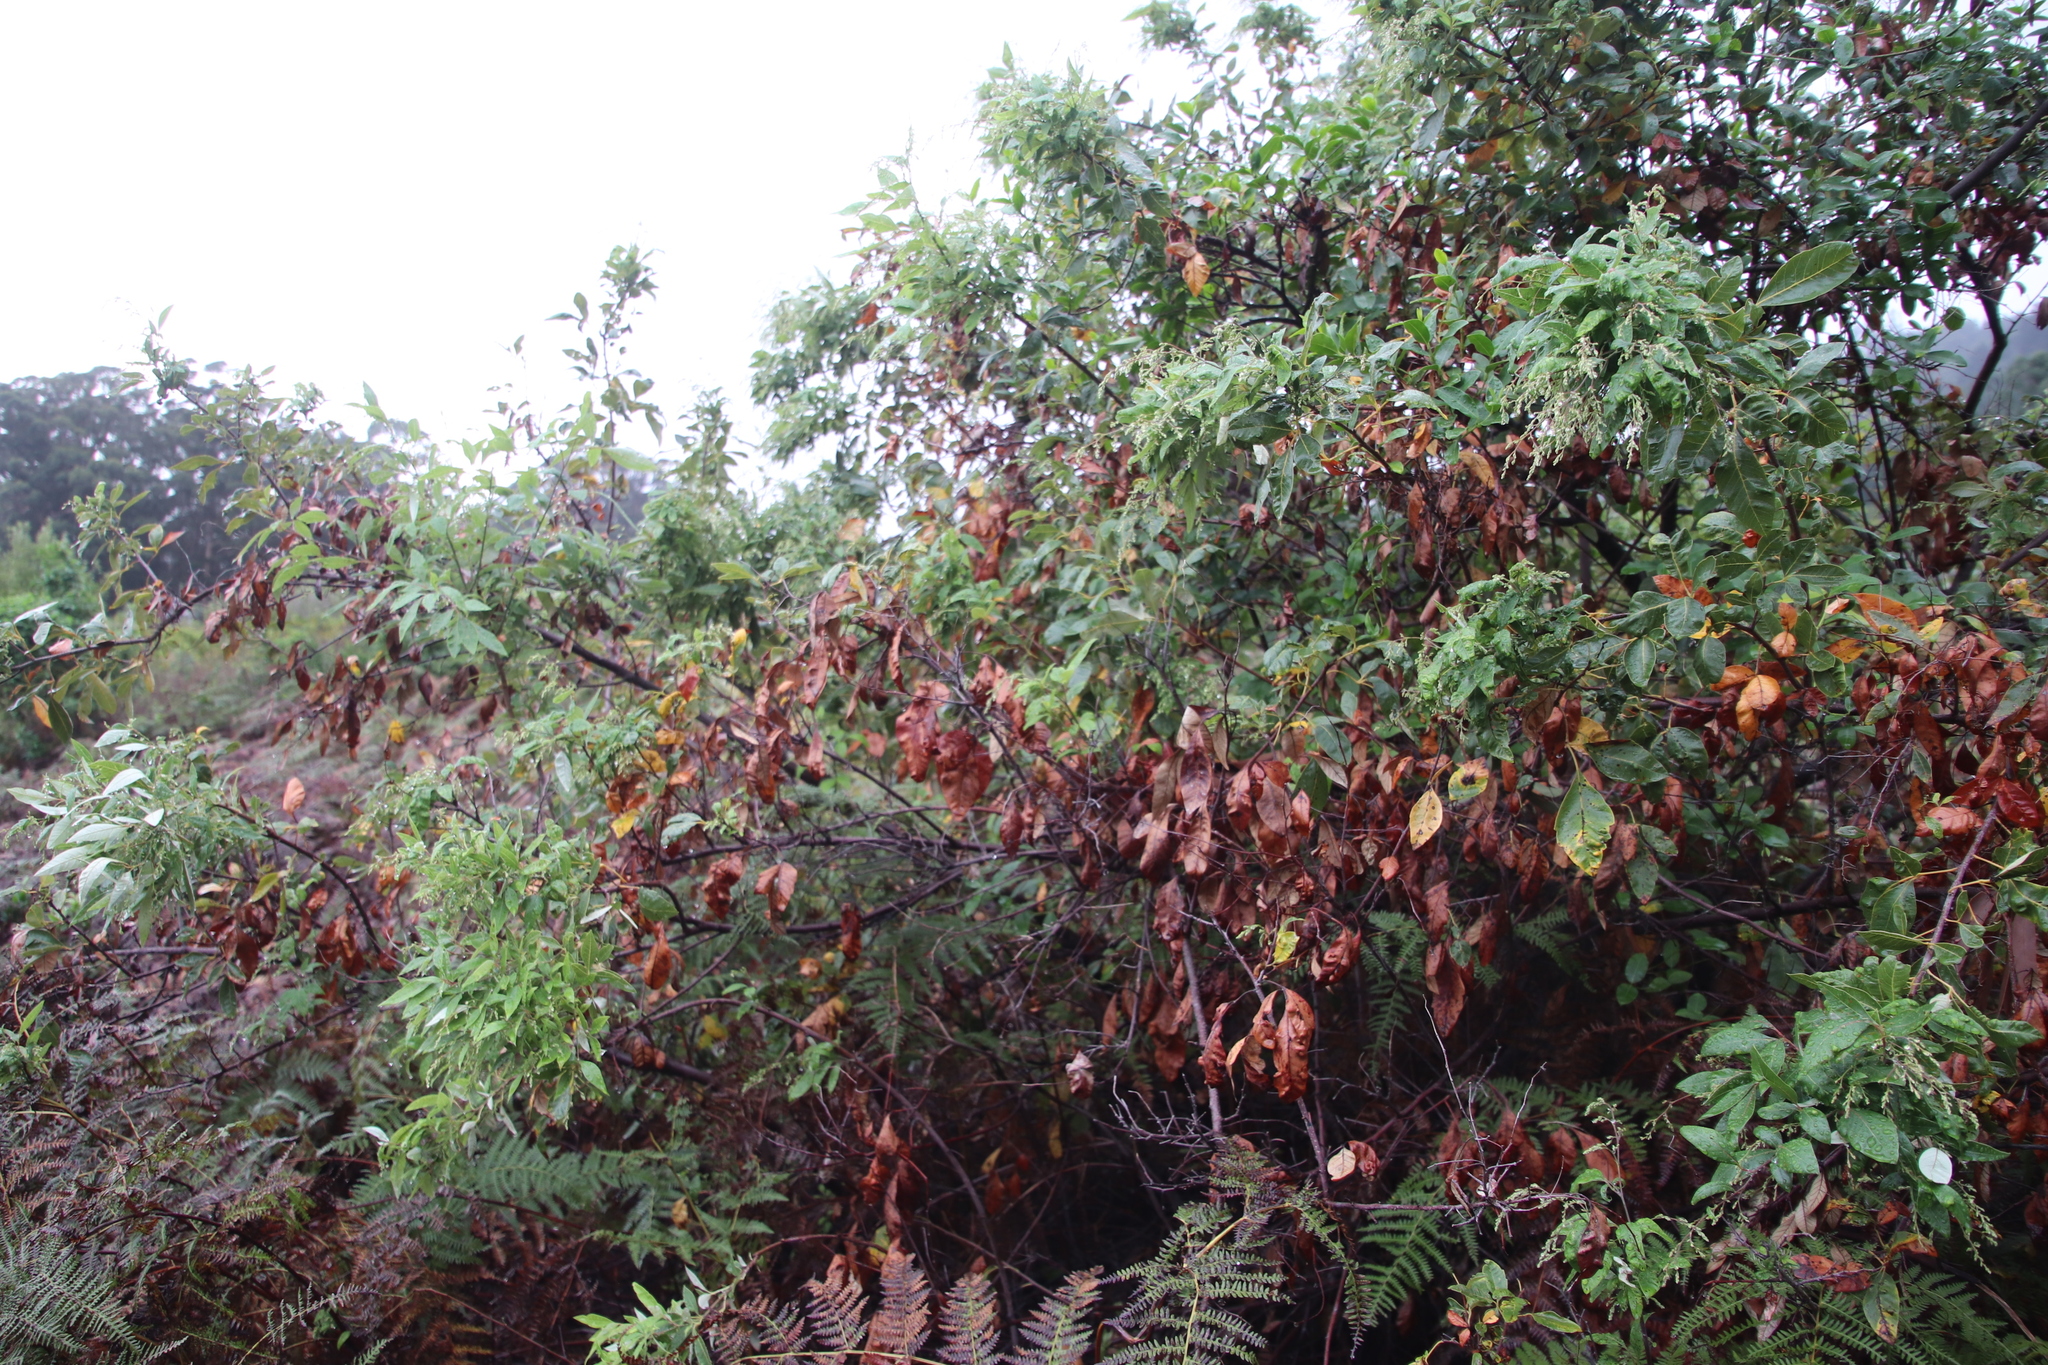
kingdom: Plantae
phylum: Tracheophyta
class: Magnoliopsida
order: Sapindales
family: Anacardiaceae
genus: Searsia
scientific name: Searsia tomentosa
